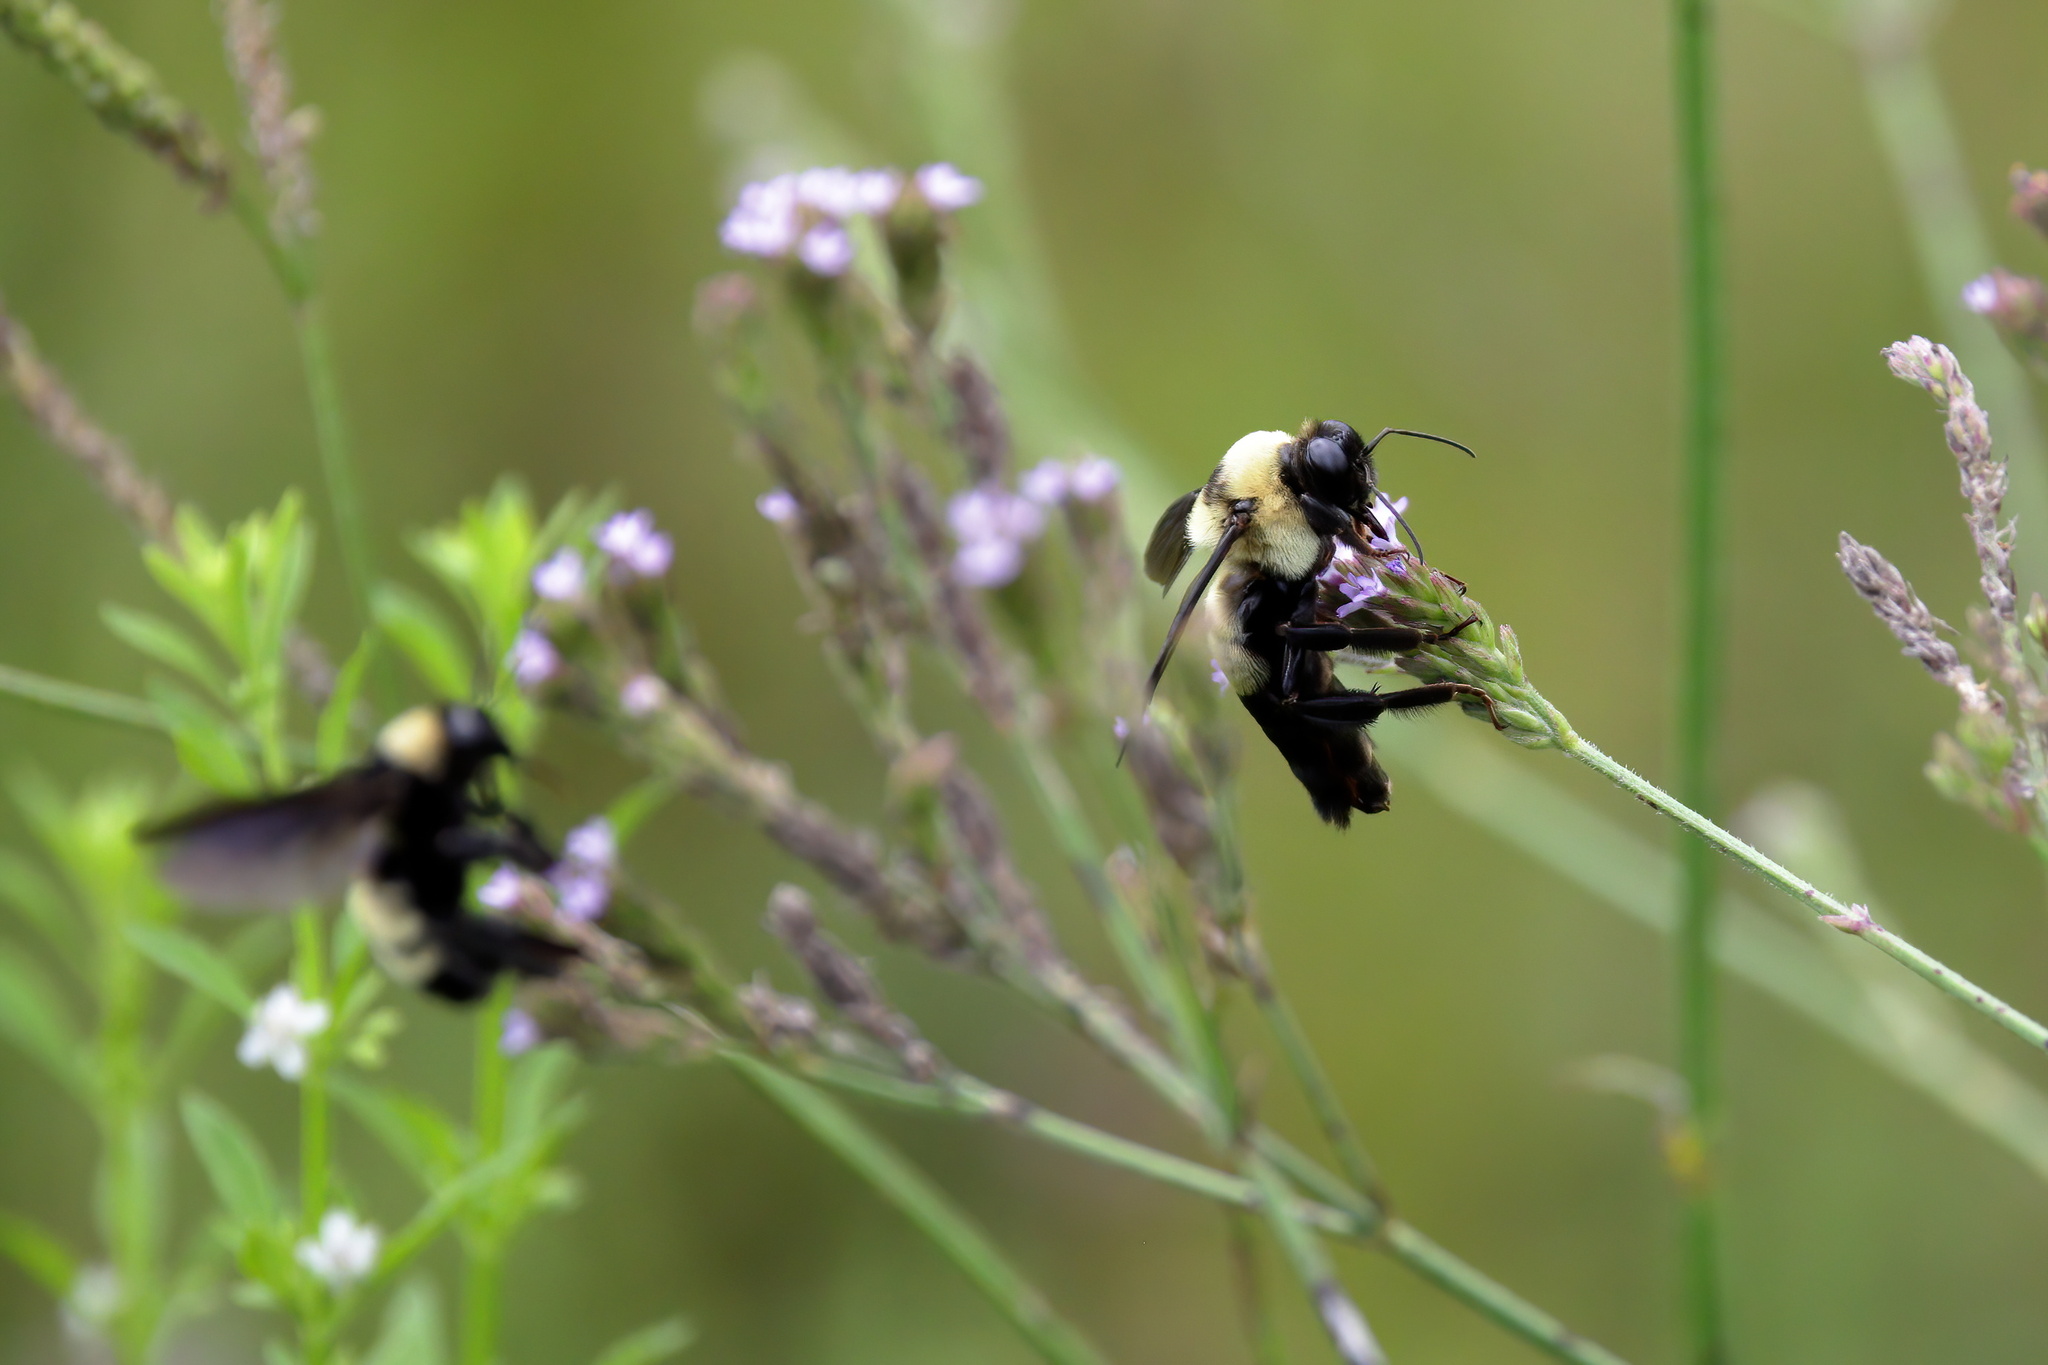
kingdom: Animalia
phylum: Arthropoda
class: Insecta
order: Hymenoptera
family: Apidae
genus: Bombus
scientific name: Bombus fraternus
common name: Southern plains bumble bee
